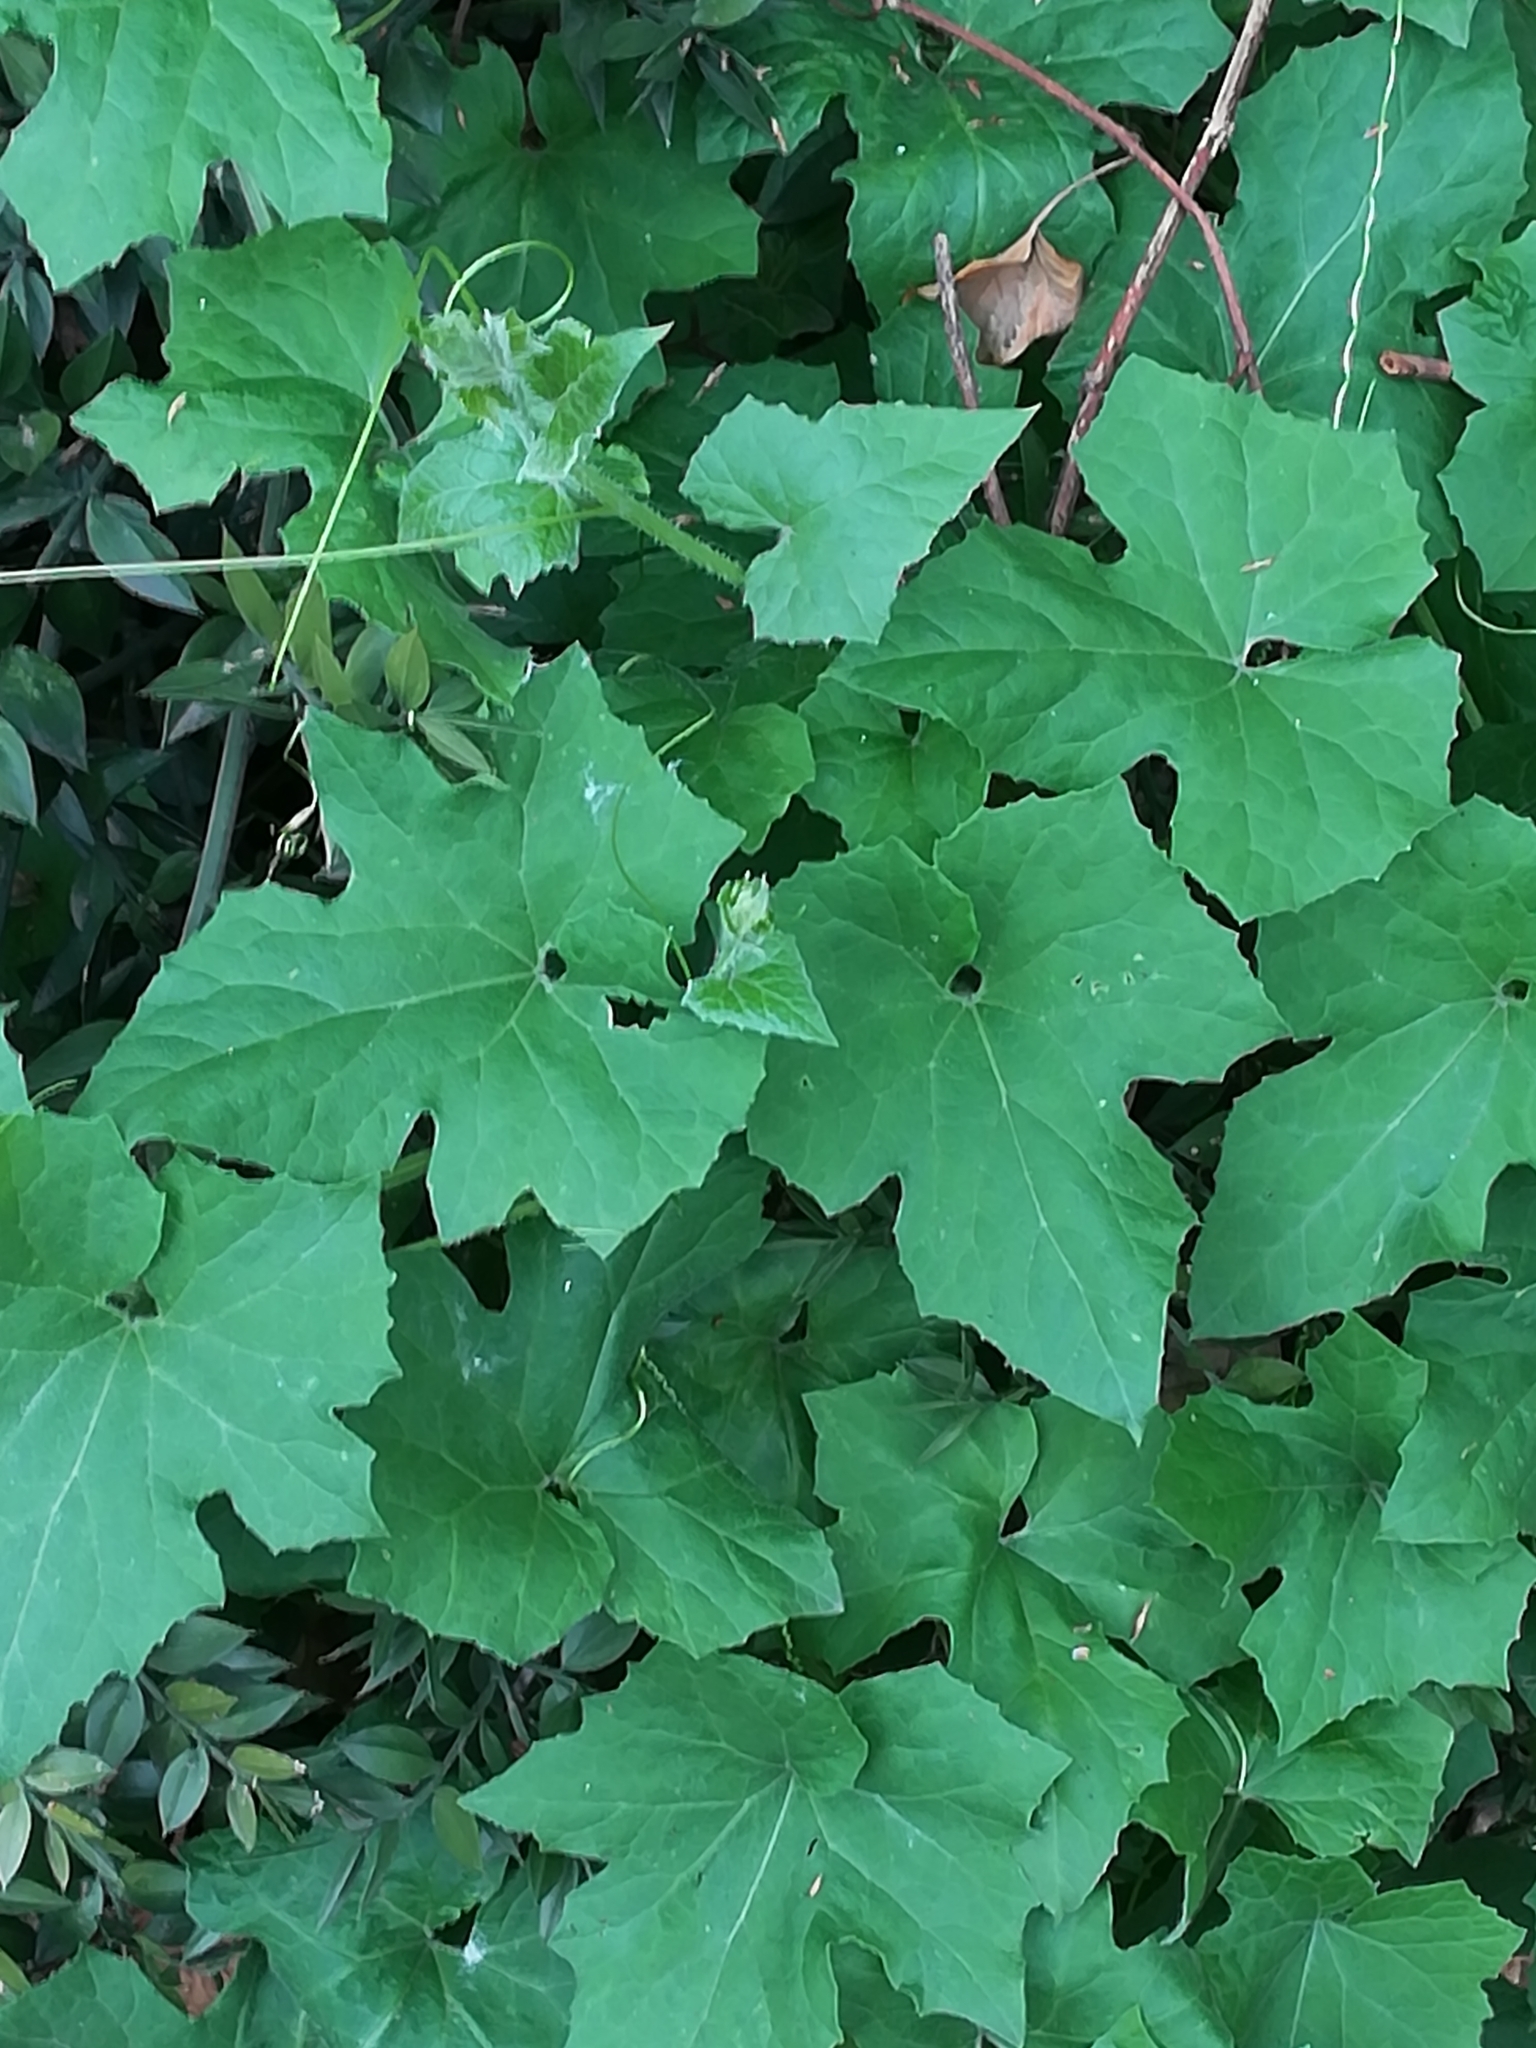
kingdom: Plantae
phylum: Tracheophyta
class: Magnoliopsida
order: Cucurbitales
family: Cucurbitaceae
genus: Bryonia
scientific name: Bryonia cretica
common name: Cretan bryony
